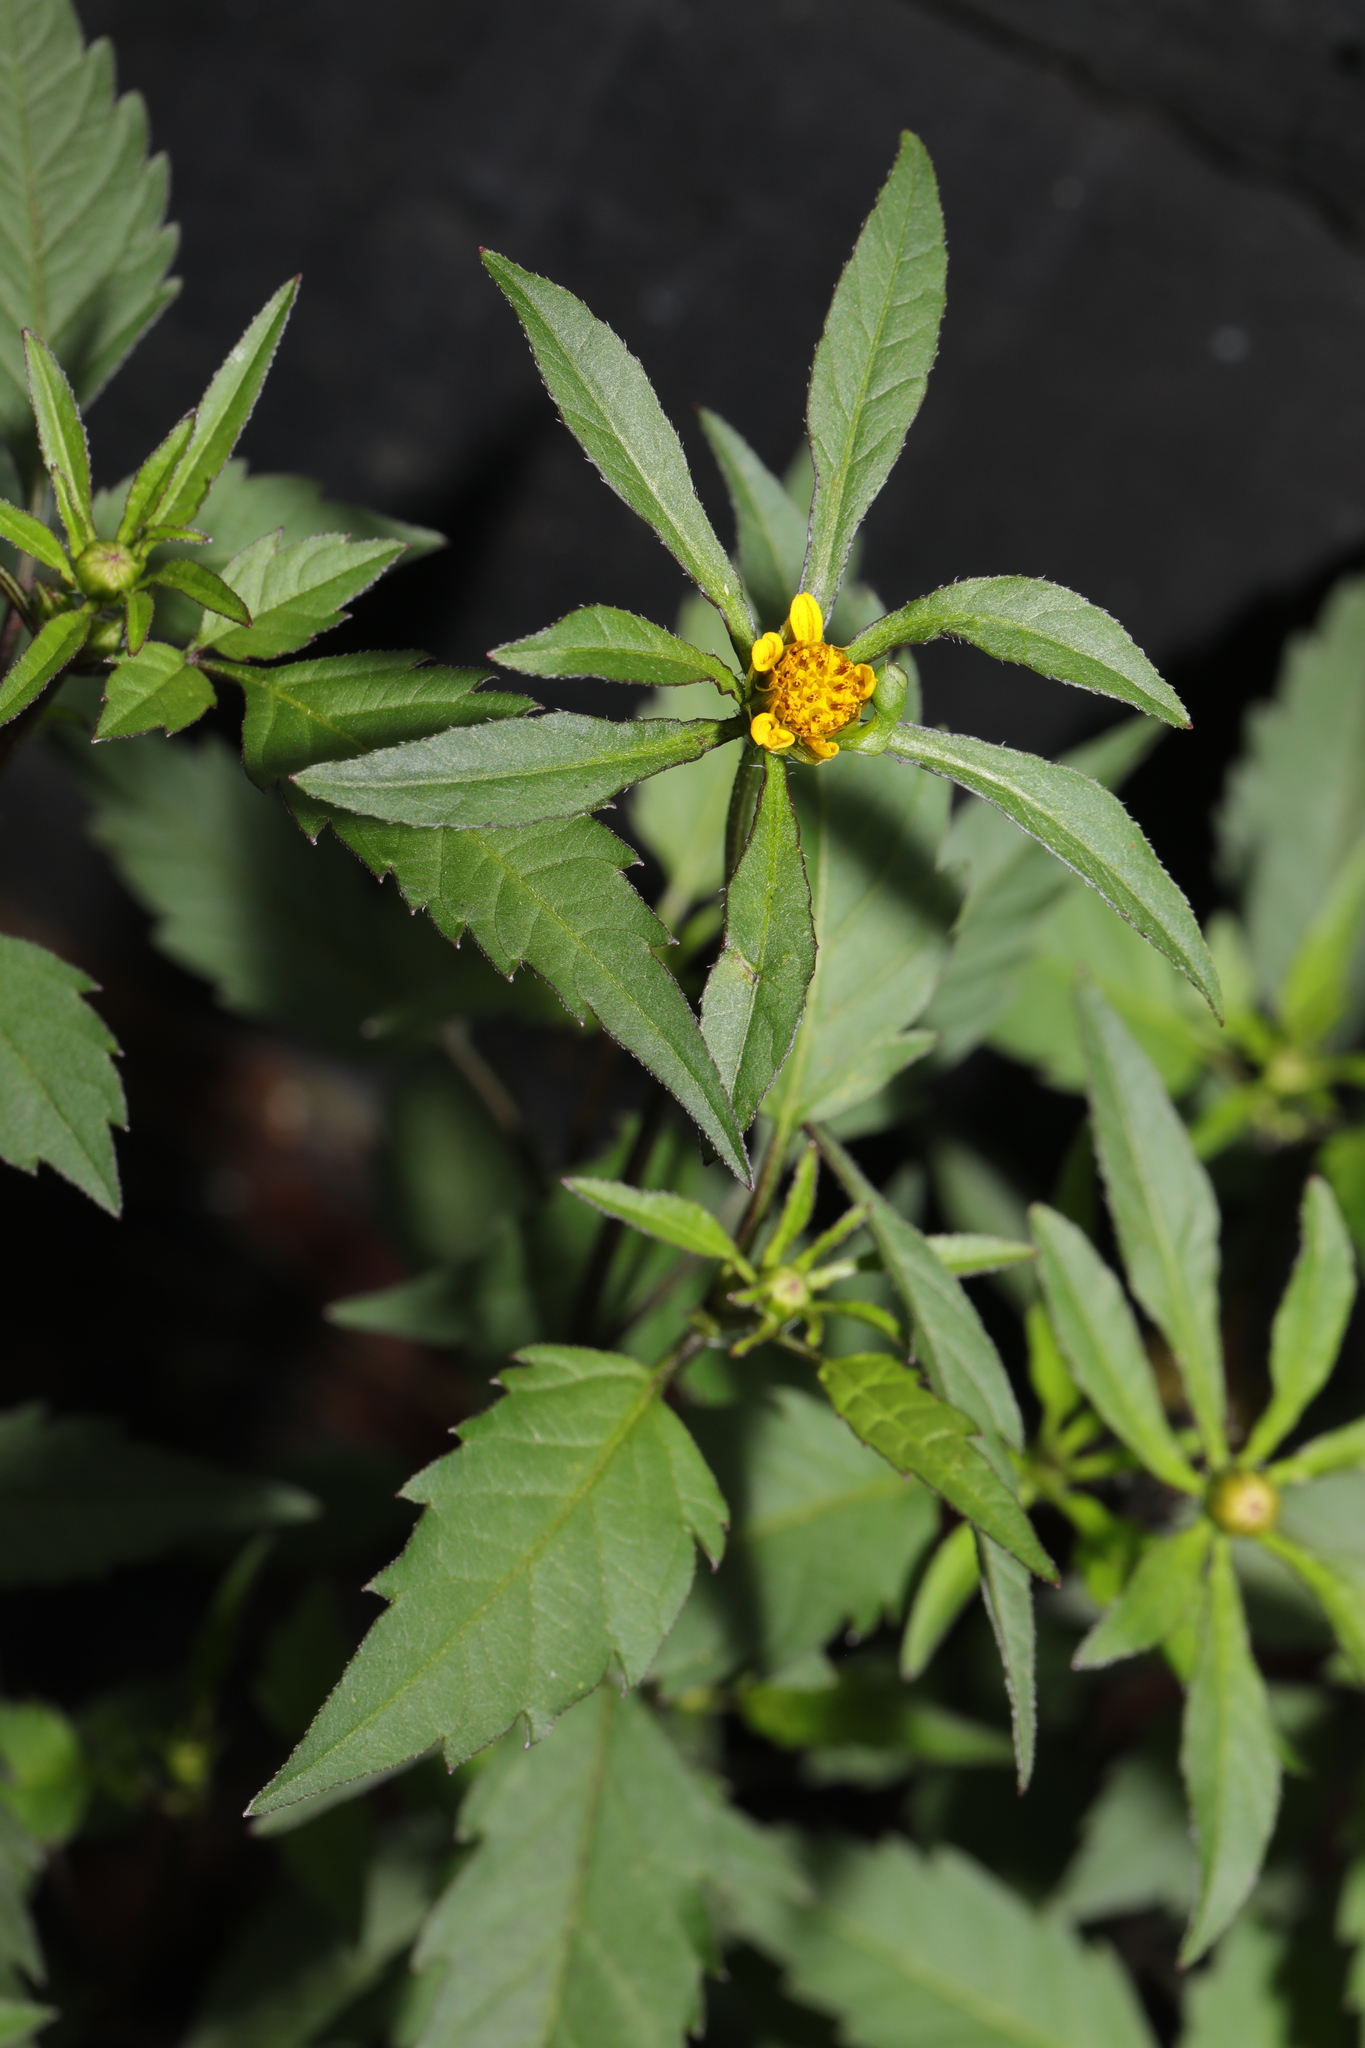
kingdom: Plantae
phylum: Tracheophyta
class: Magnoliopsida
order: Asterales
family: Asteraceae
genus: Bidens
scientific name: Bidens frondosa
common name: Beggarticks
